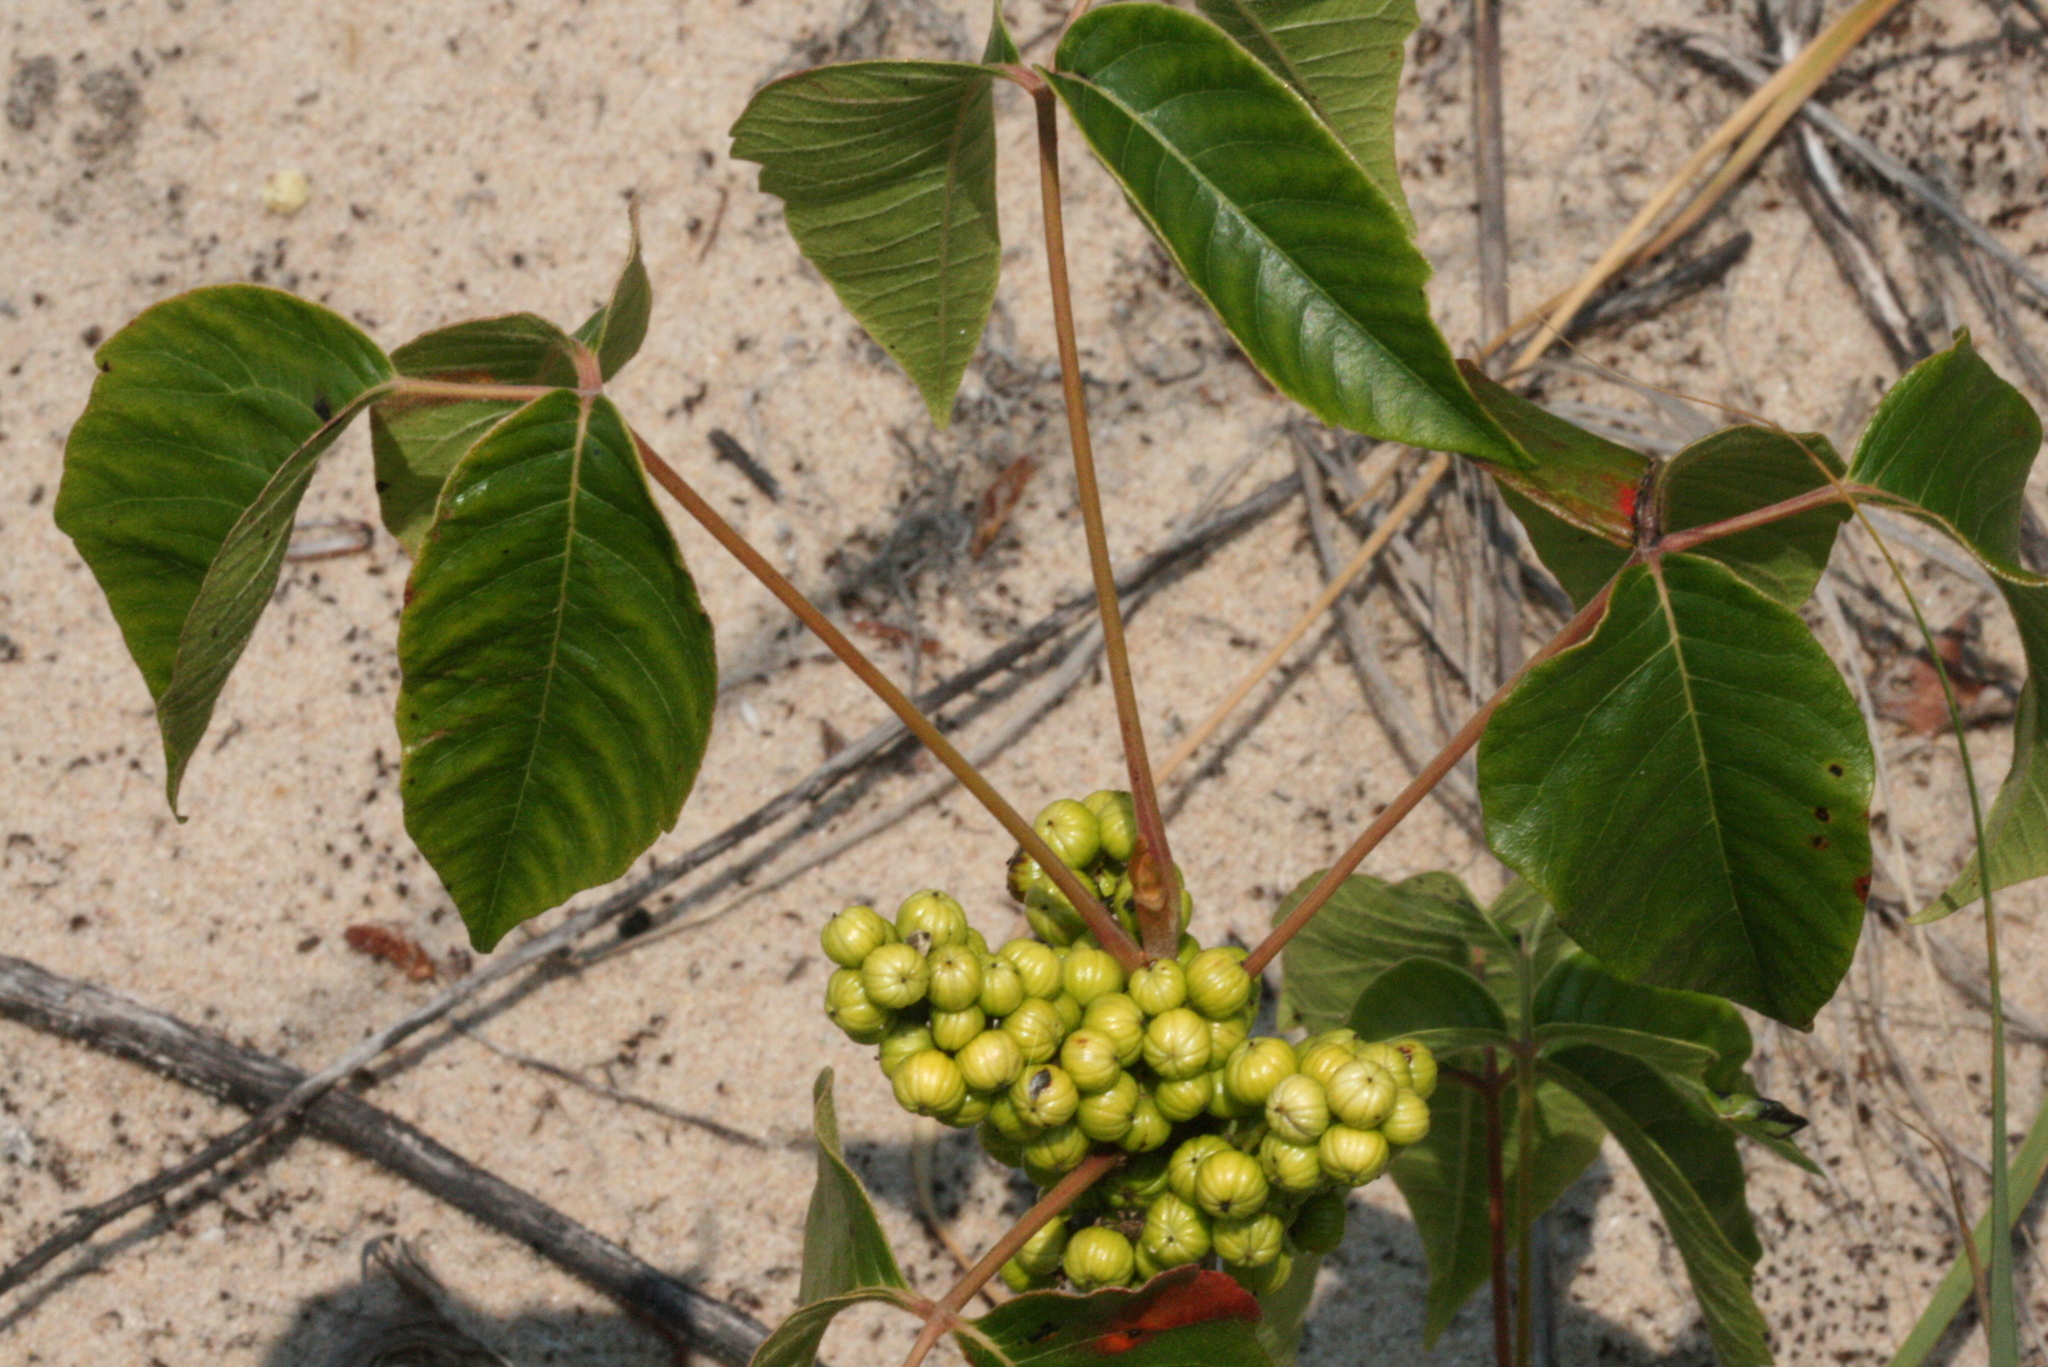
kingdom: Plantae
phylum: Tracheophyta
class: Magnoliopsida
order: Sapindales
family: Anacardiaceae
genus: Toxicodendron
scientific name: Toxicodendron rydbergii
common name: Rydberg's poison-ivy
